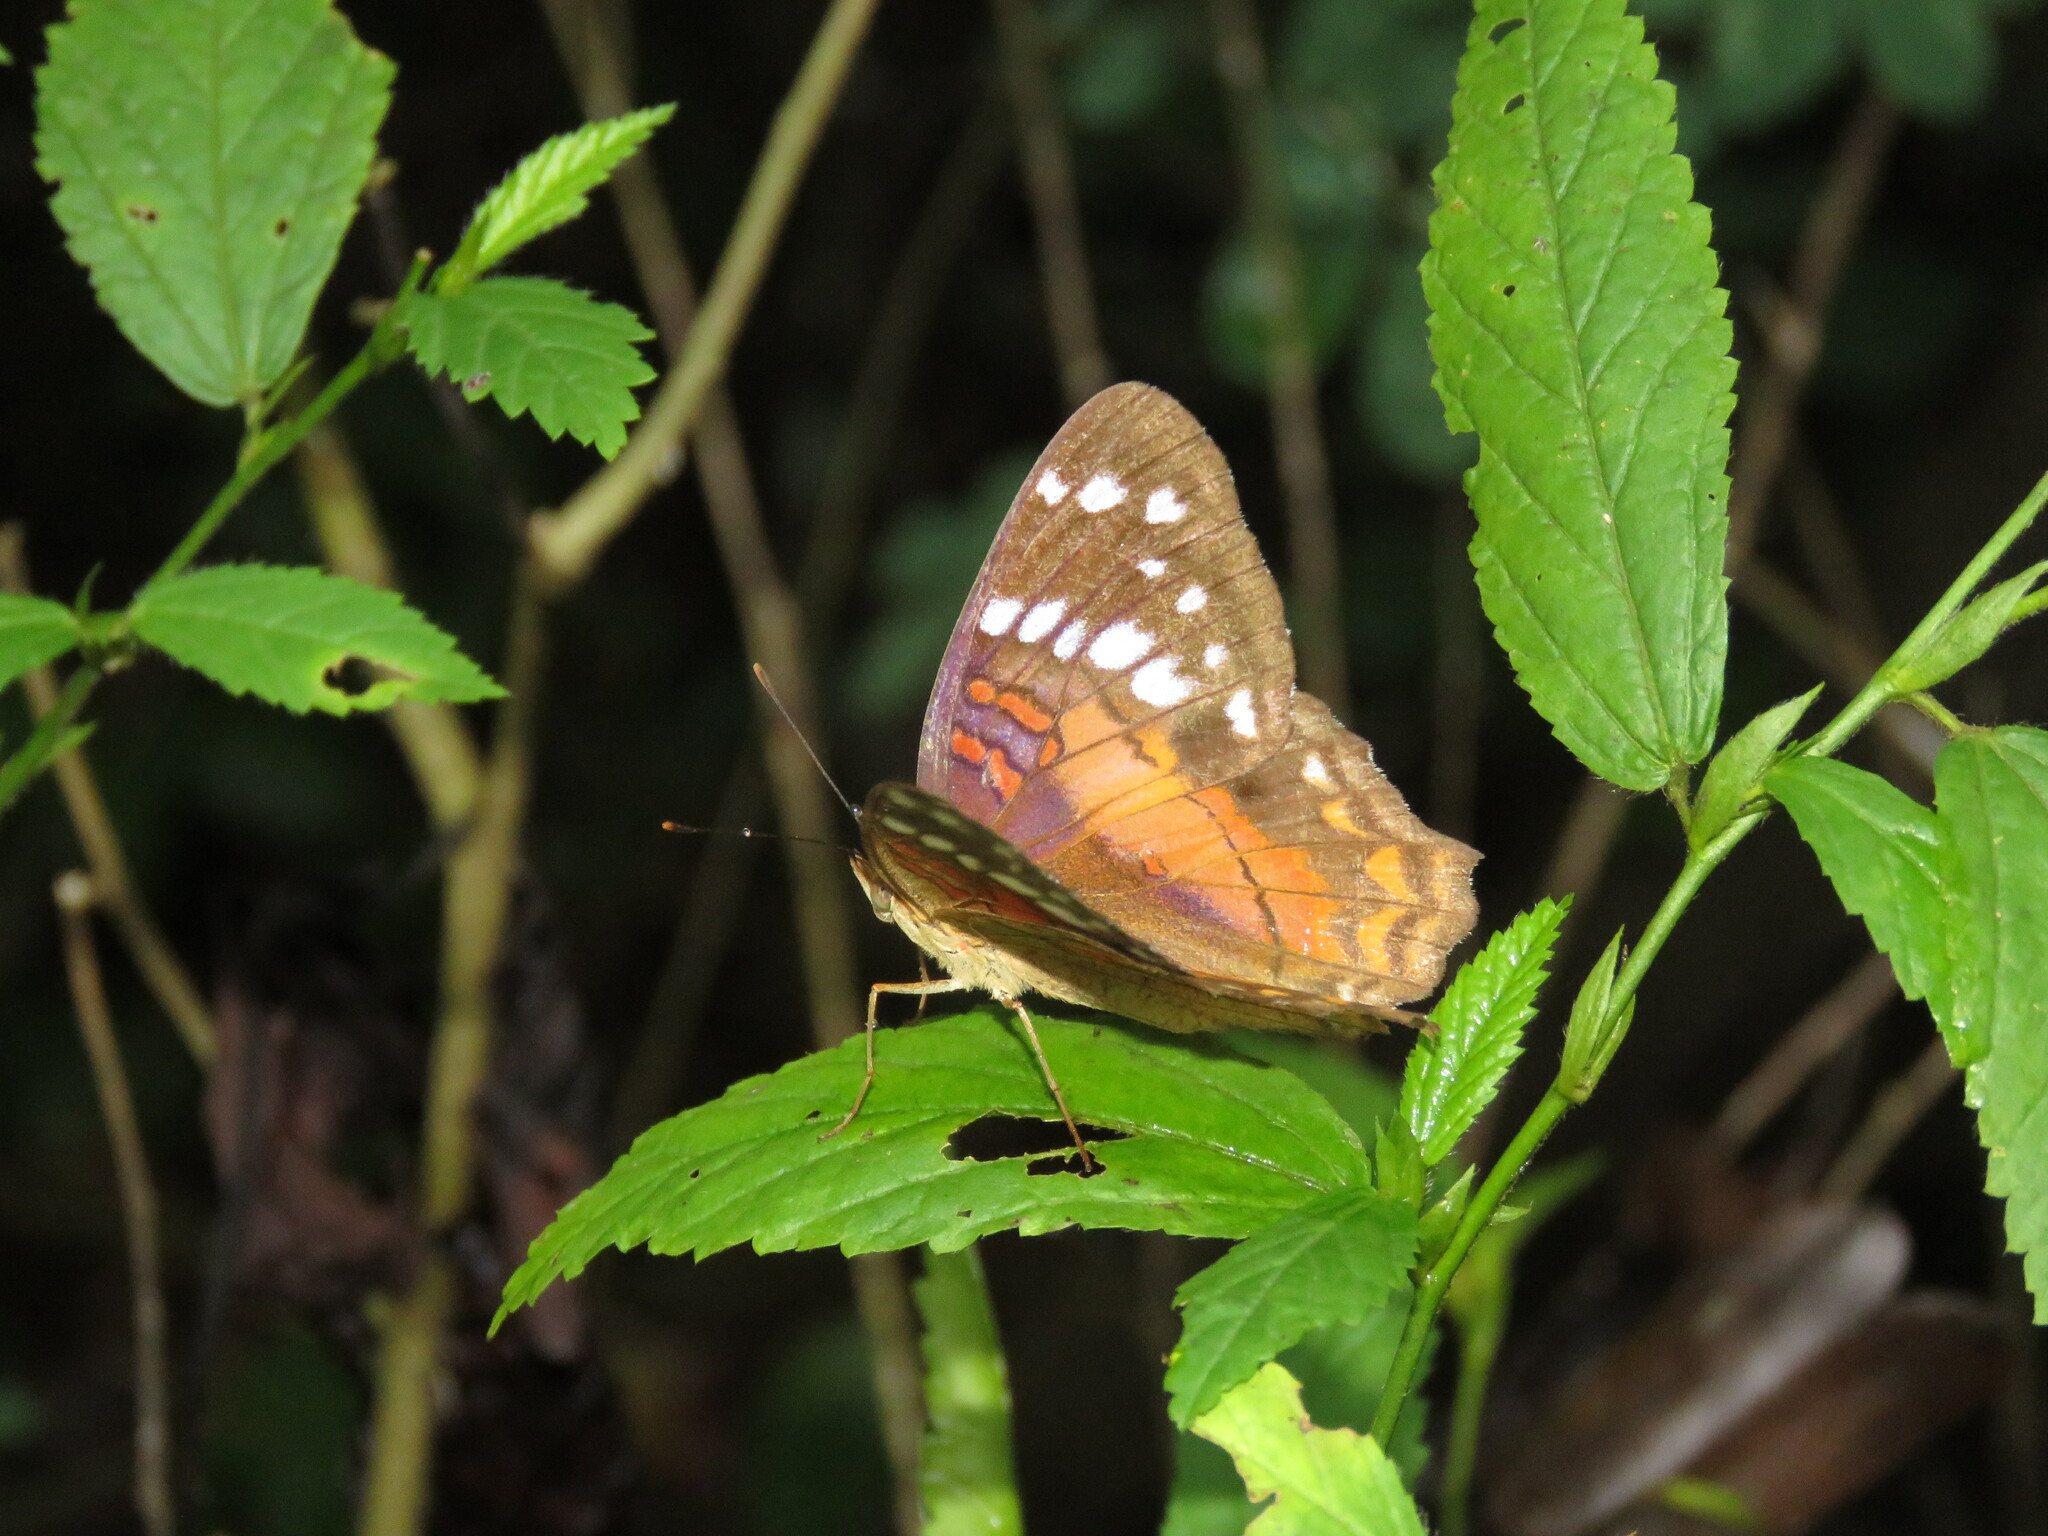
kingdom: Animalia
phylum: Arthropoda
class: Insecta
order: Lepidoptera
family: Nymphalidae
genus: Anartia
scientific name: Anartia amathea
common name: Red peacock
